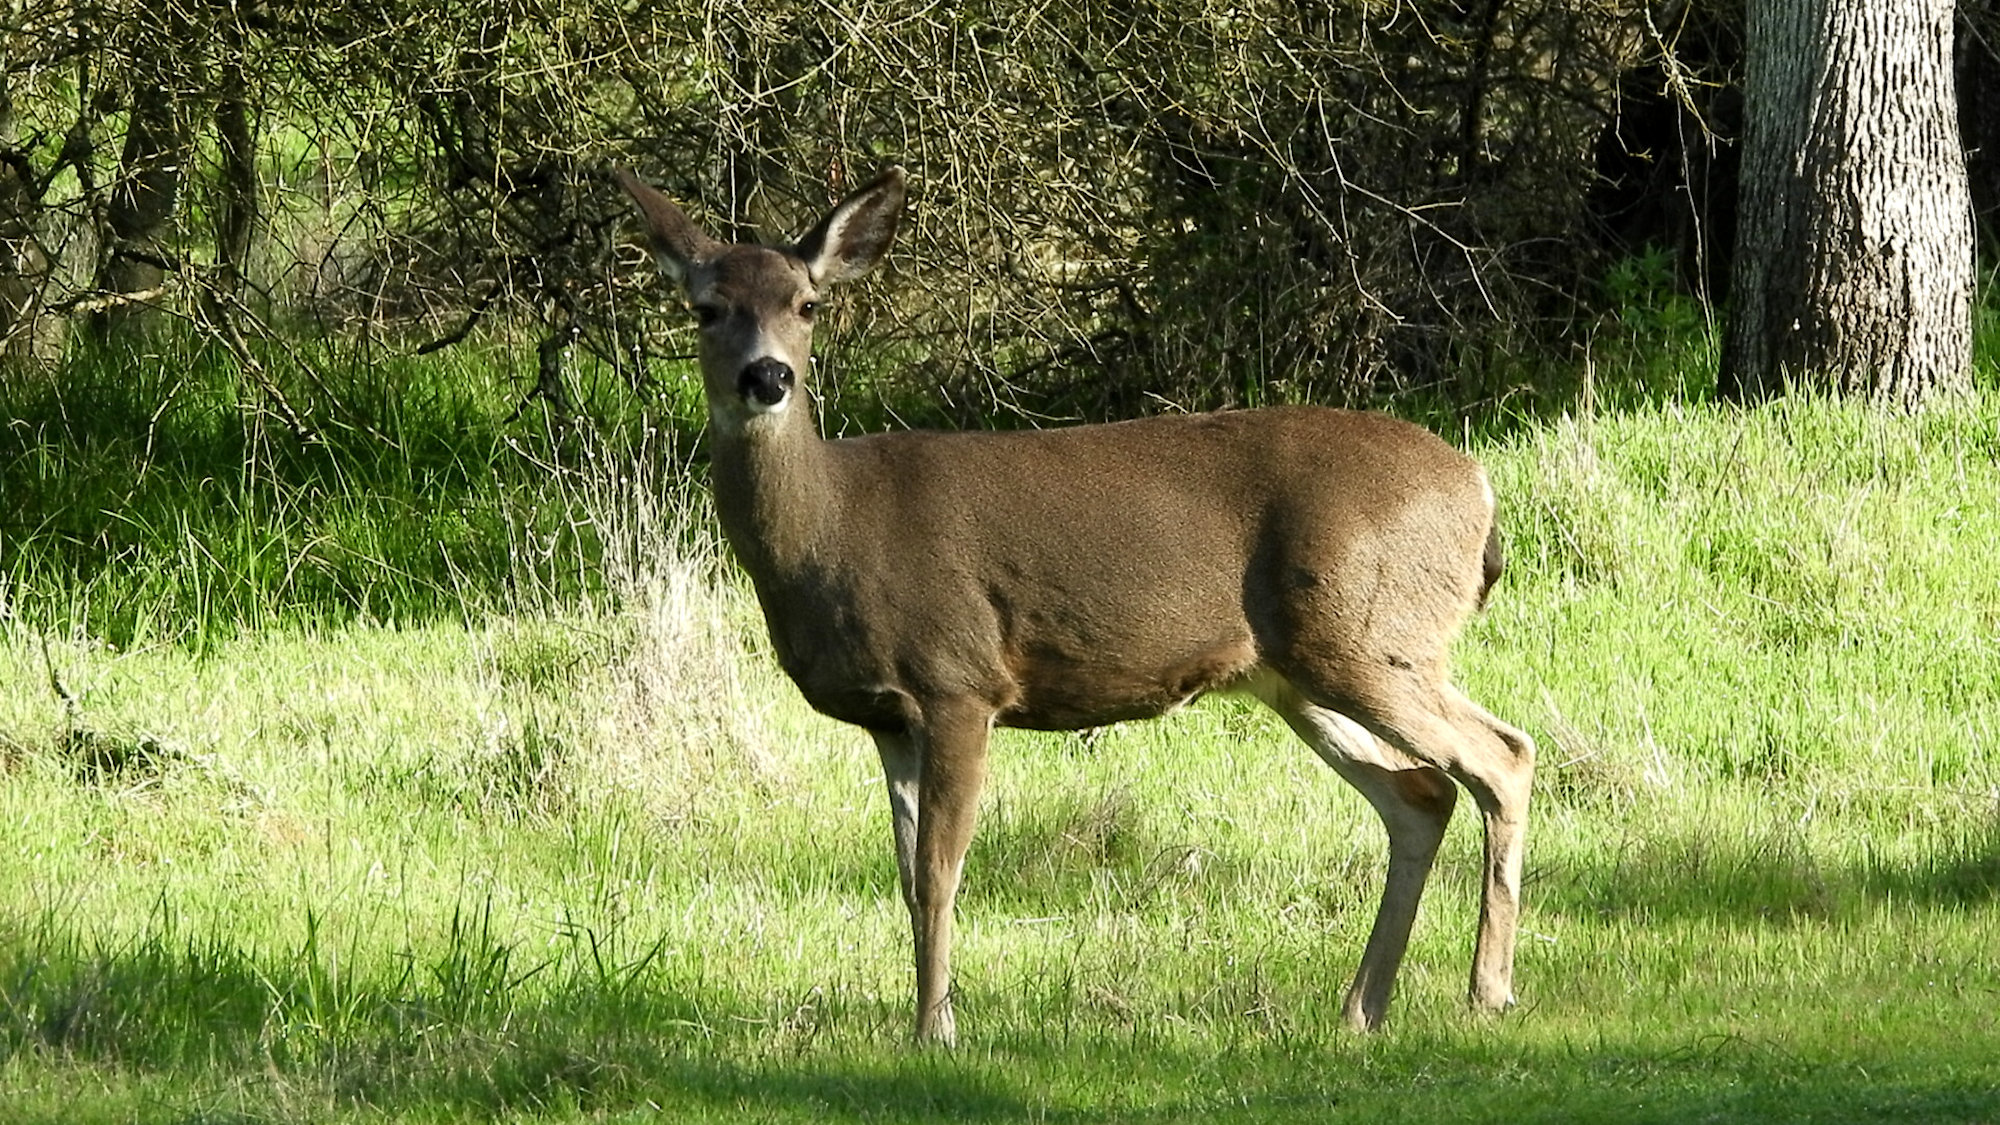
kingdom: Animalia
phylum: Chordata
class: Mammalia
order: Artiodactyla
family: Cervidae
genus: Odocoileus
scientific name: Odocoileus hemionus
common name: Mule deer
